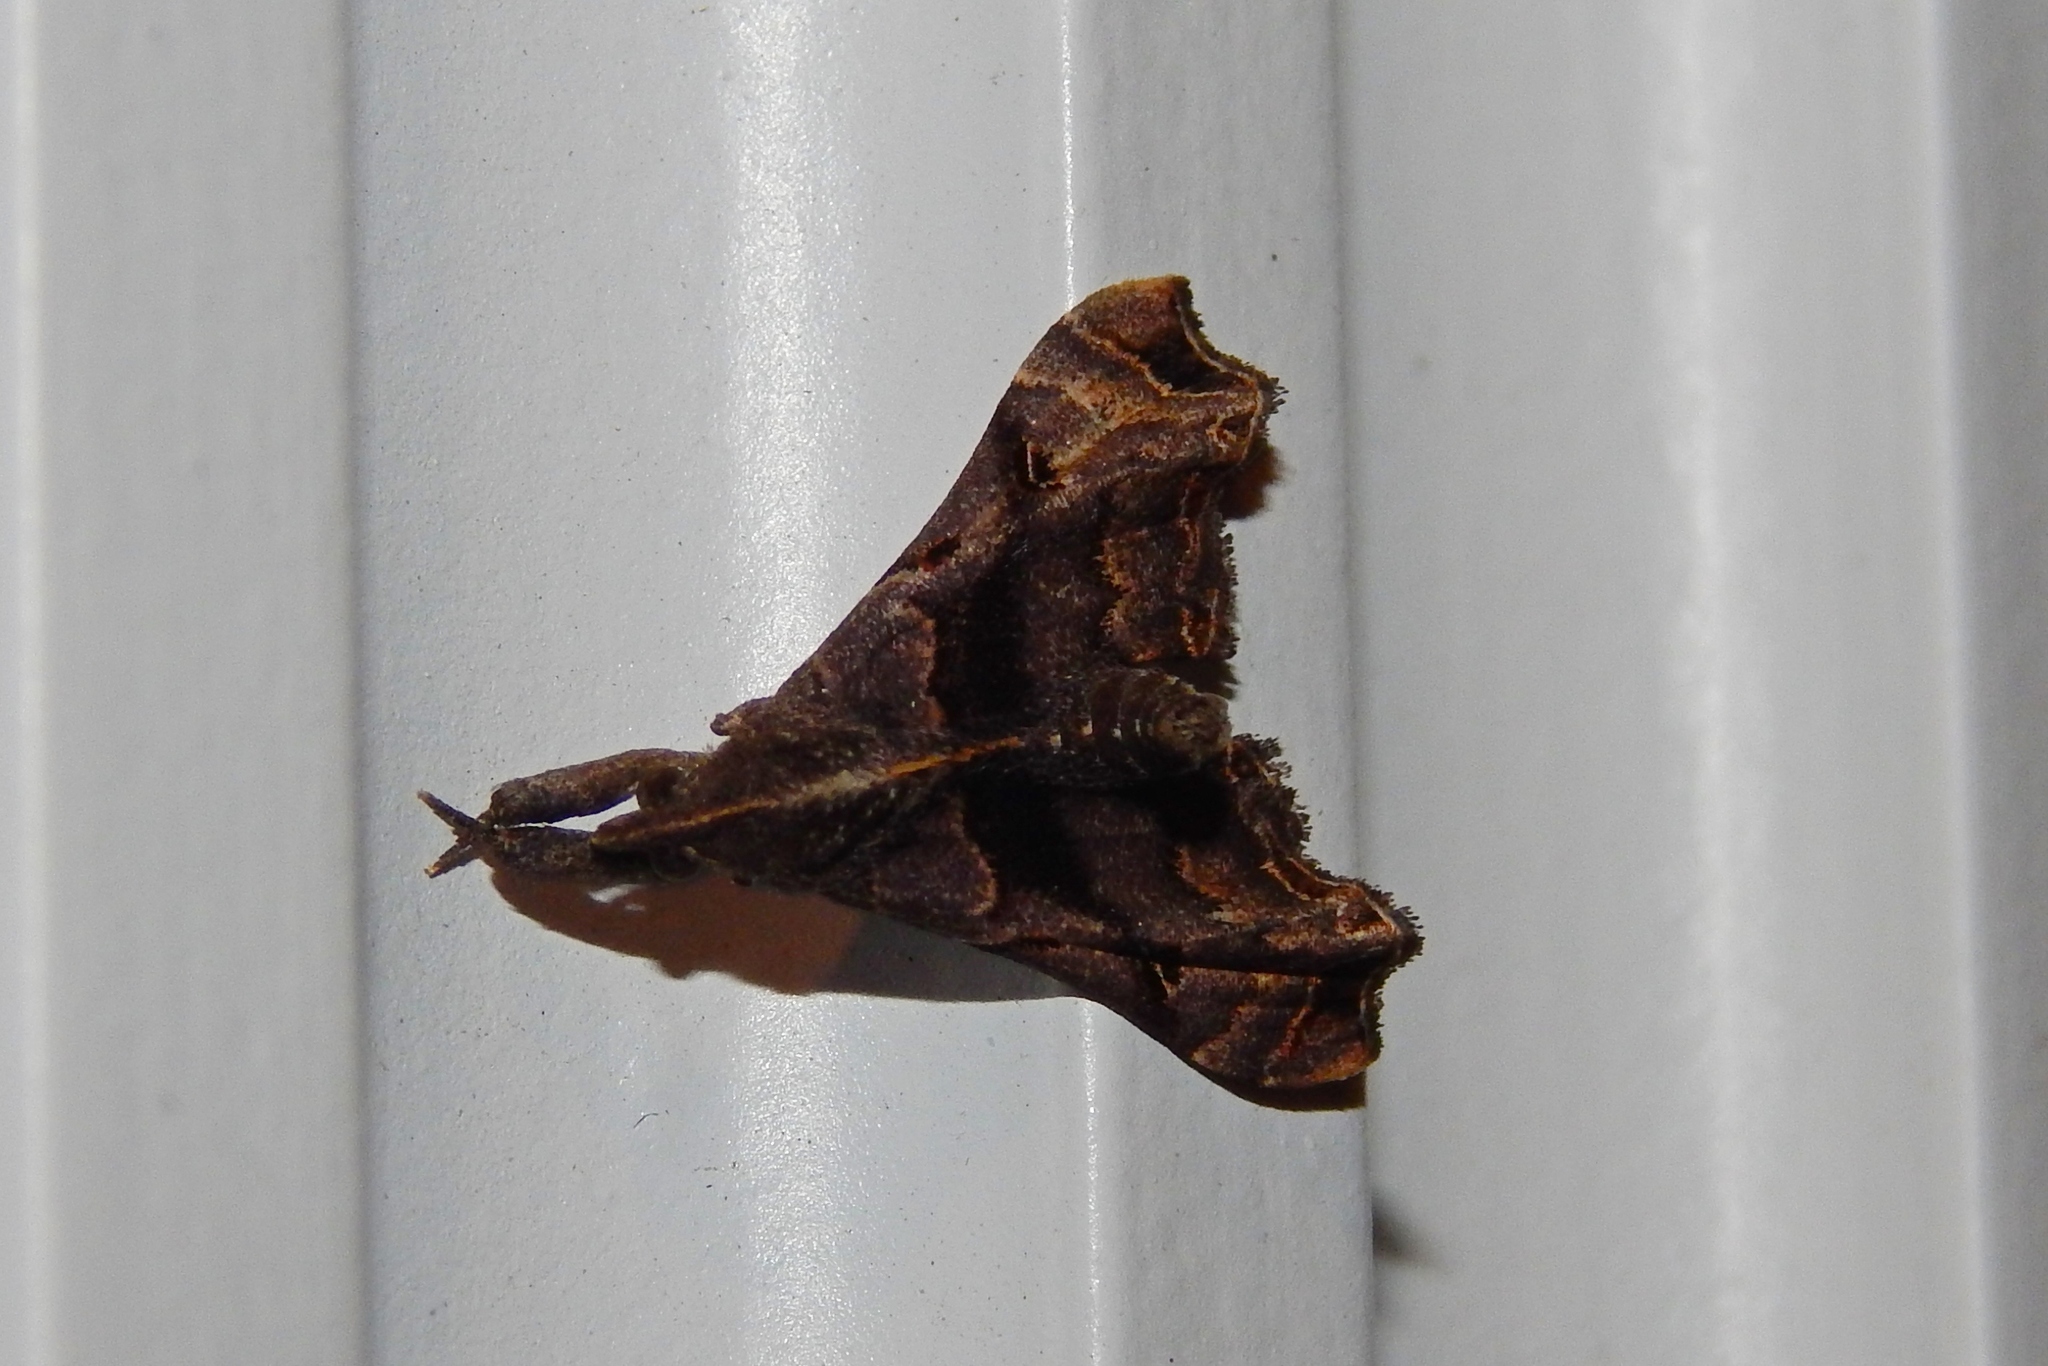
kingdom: Animalia
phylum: Arthropoda
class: Insecta
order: Lepidoptera
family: Erebidae
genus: Palthis
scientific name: Palthis asopialis
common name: Faint-spotted palthis moth
